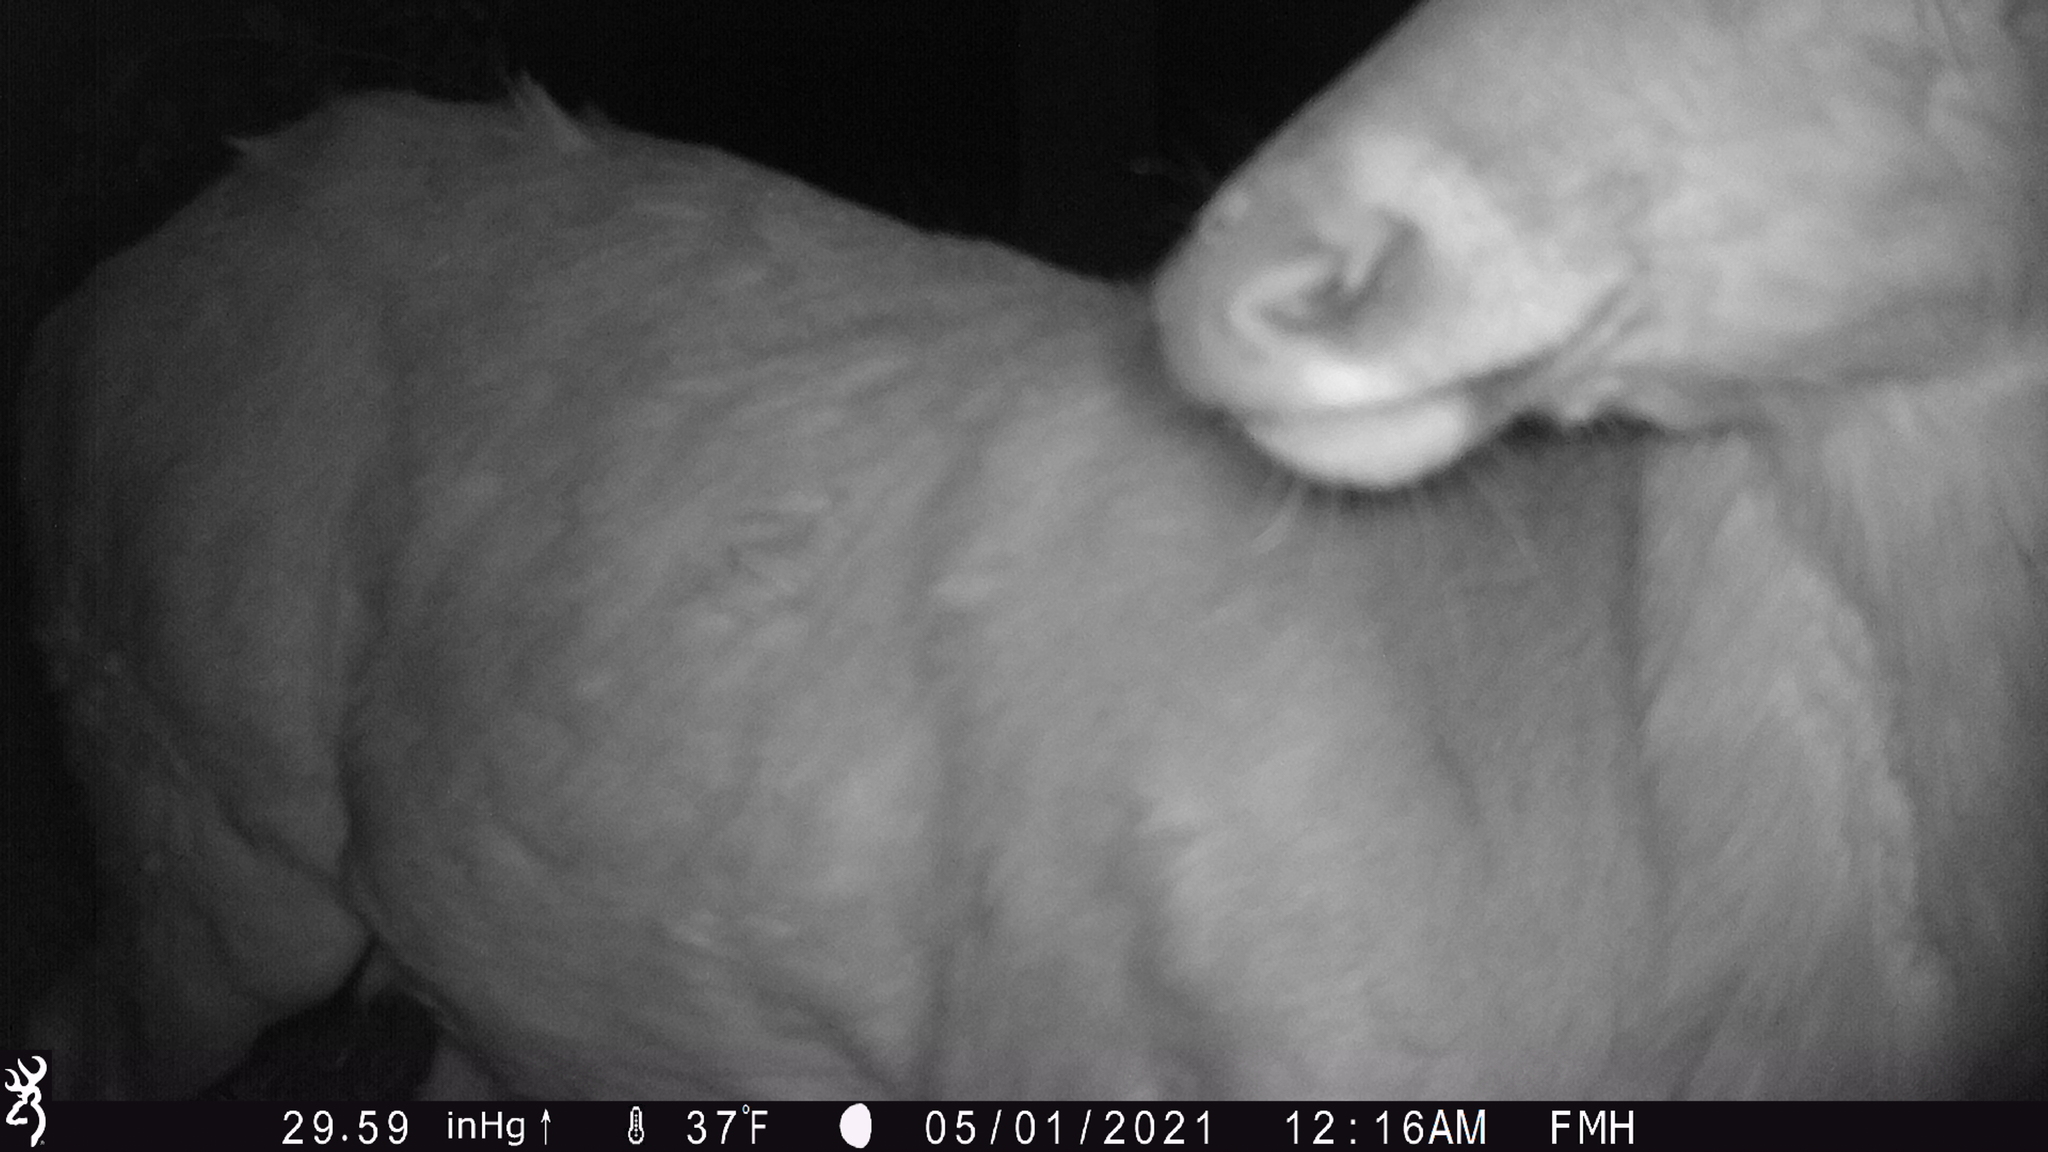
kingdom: Animalia
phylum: Chordata
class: Mammalia
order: Artiodactyla
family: Cervidae
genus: Odocoileus
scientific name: Odocoileus virginianus
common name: White-tailed deer
